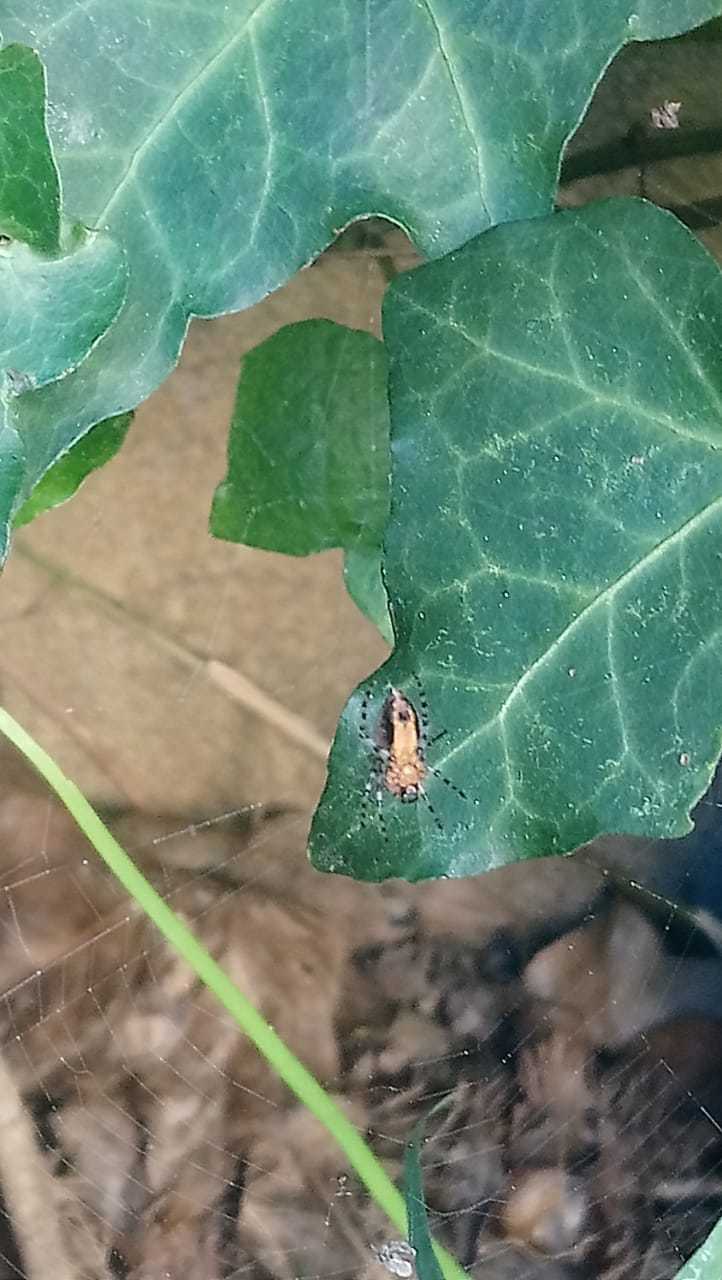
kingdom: Animalia
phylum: Arthropoda
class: Arachnida
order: Araneae
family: Araneidae
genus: Alpaida
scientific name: Alpaida gallardoi
